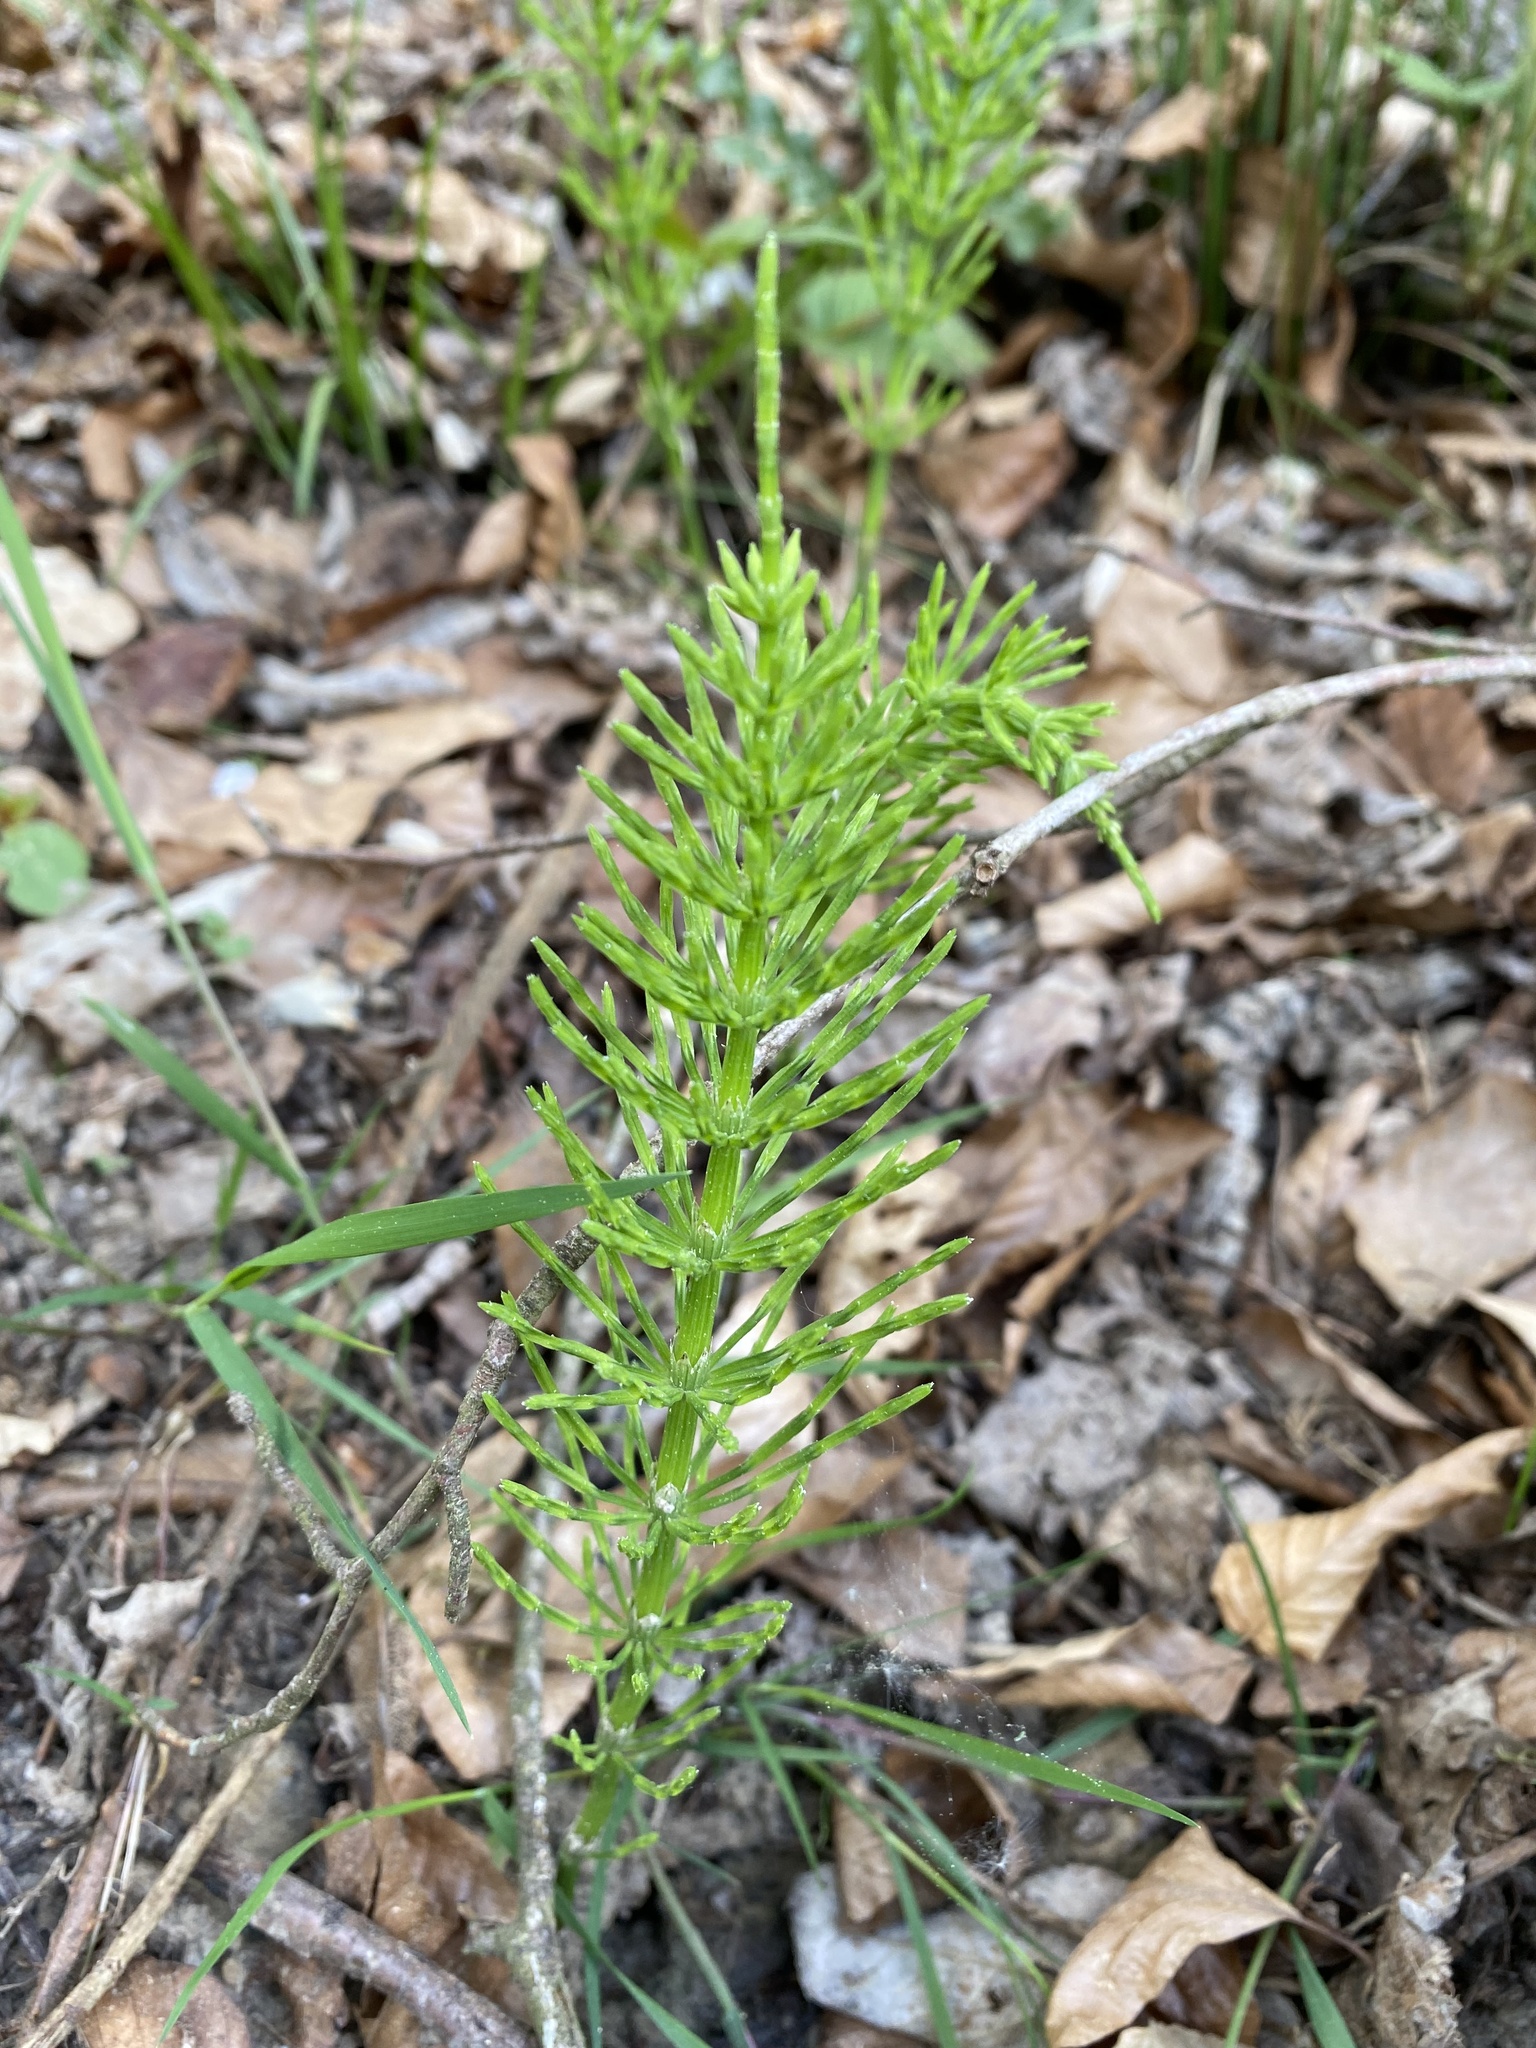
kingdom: Plantae
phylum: Tracheophyta
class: Polypodiopsida
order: Equisetales
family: Equisetaceae
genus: Equisetum
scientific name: Equisetum arvense
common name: Field horsetail
